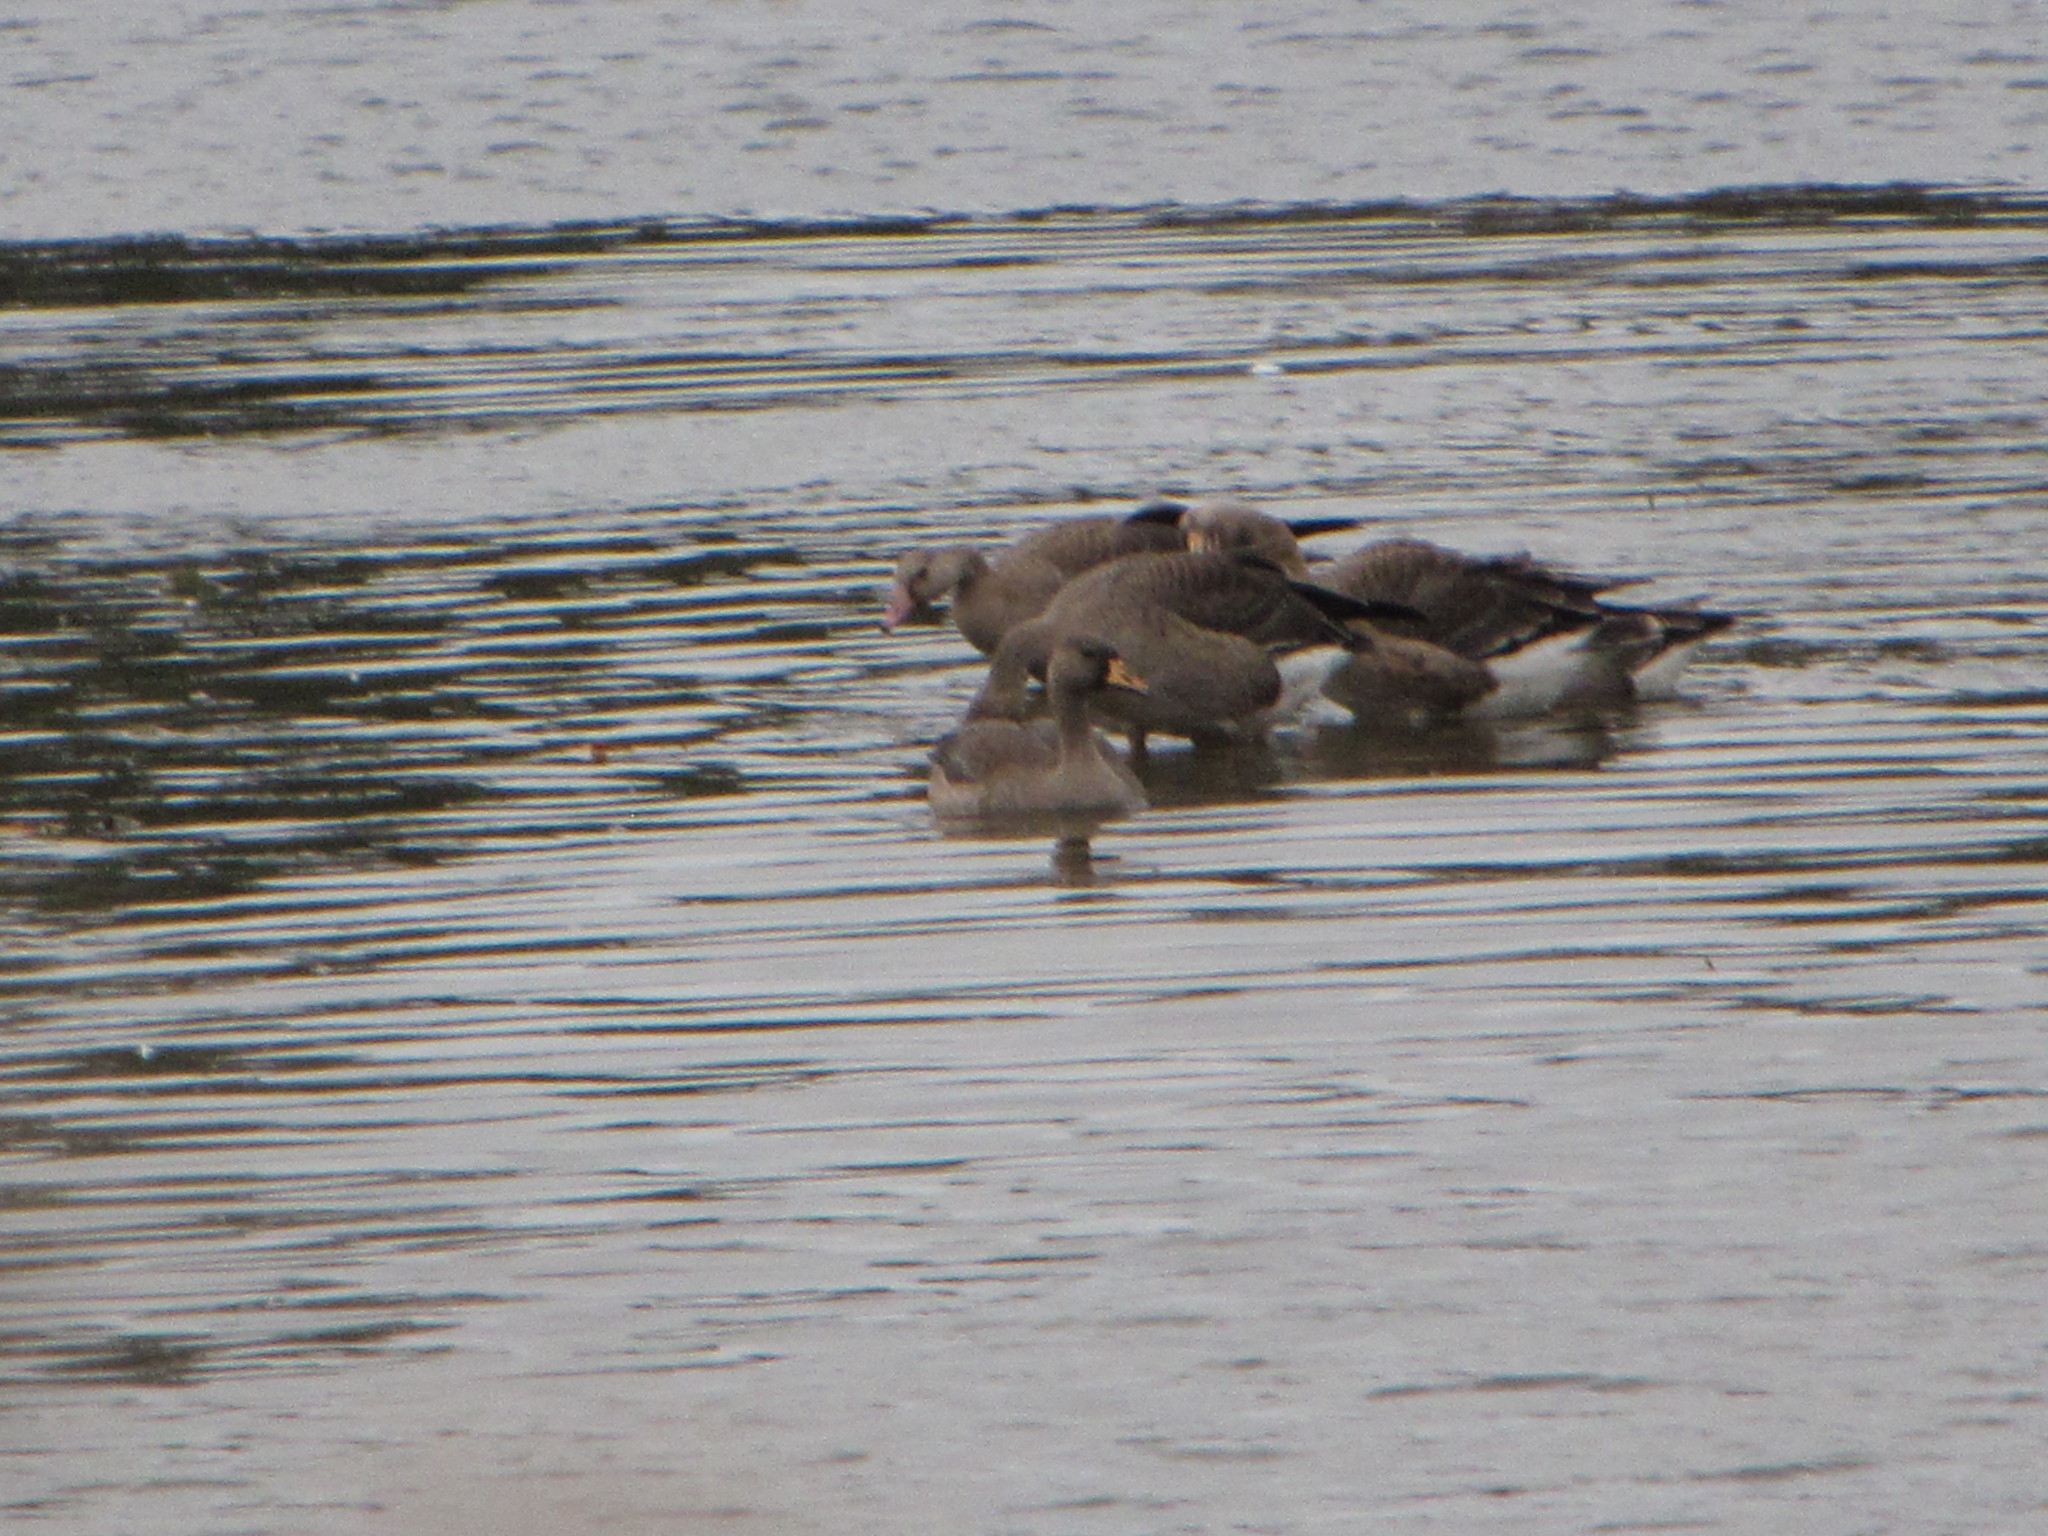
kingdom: Animalia
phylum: Chordata
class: Aves
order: Anseriformes
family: Anatidae
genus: Anser
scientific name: Anser albifrons
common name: Greater white-fronted goose
